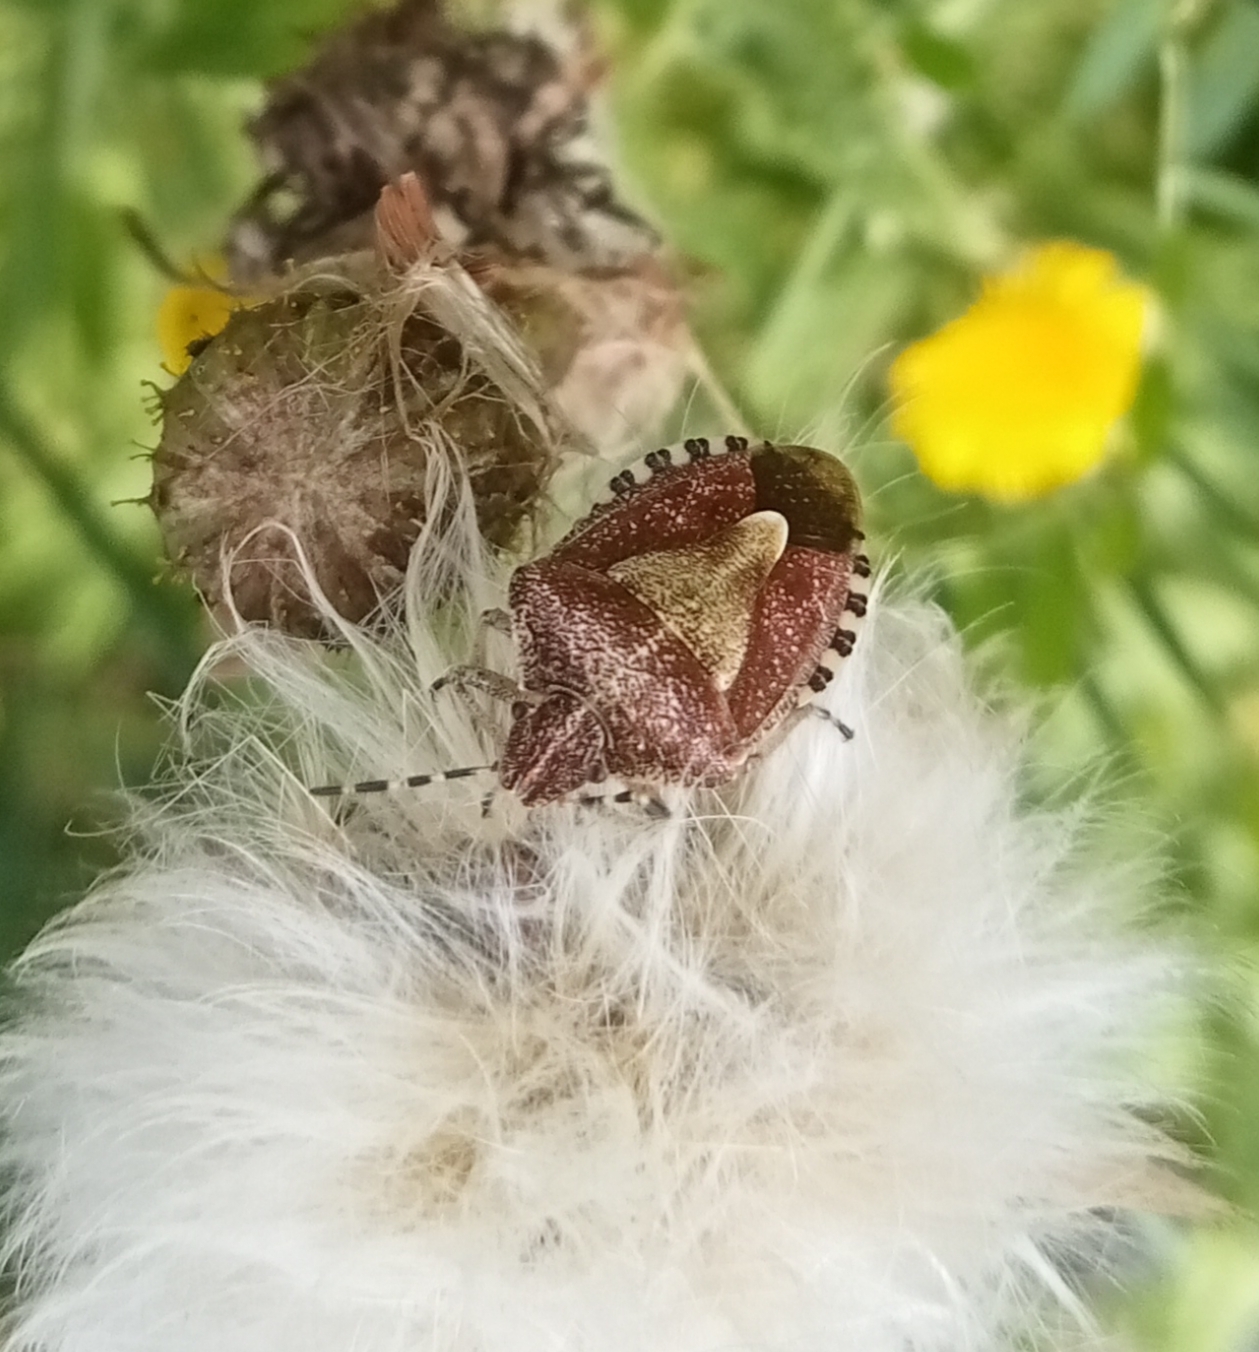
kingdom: Animalia
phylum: Arthropoda
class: Insecta
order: Hemiptera
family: Pentatomidae
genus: Dolycoris
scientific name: Dolycoris baccarum
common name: Sloe bug
